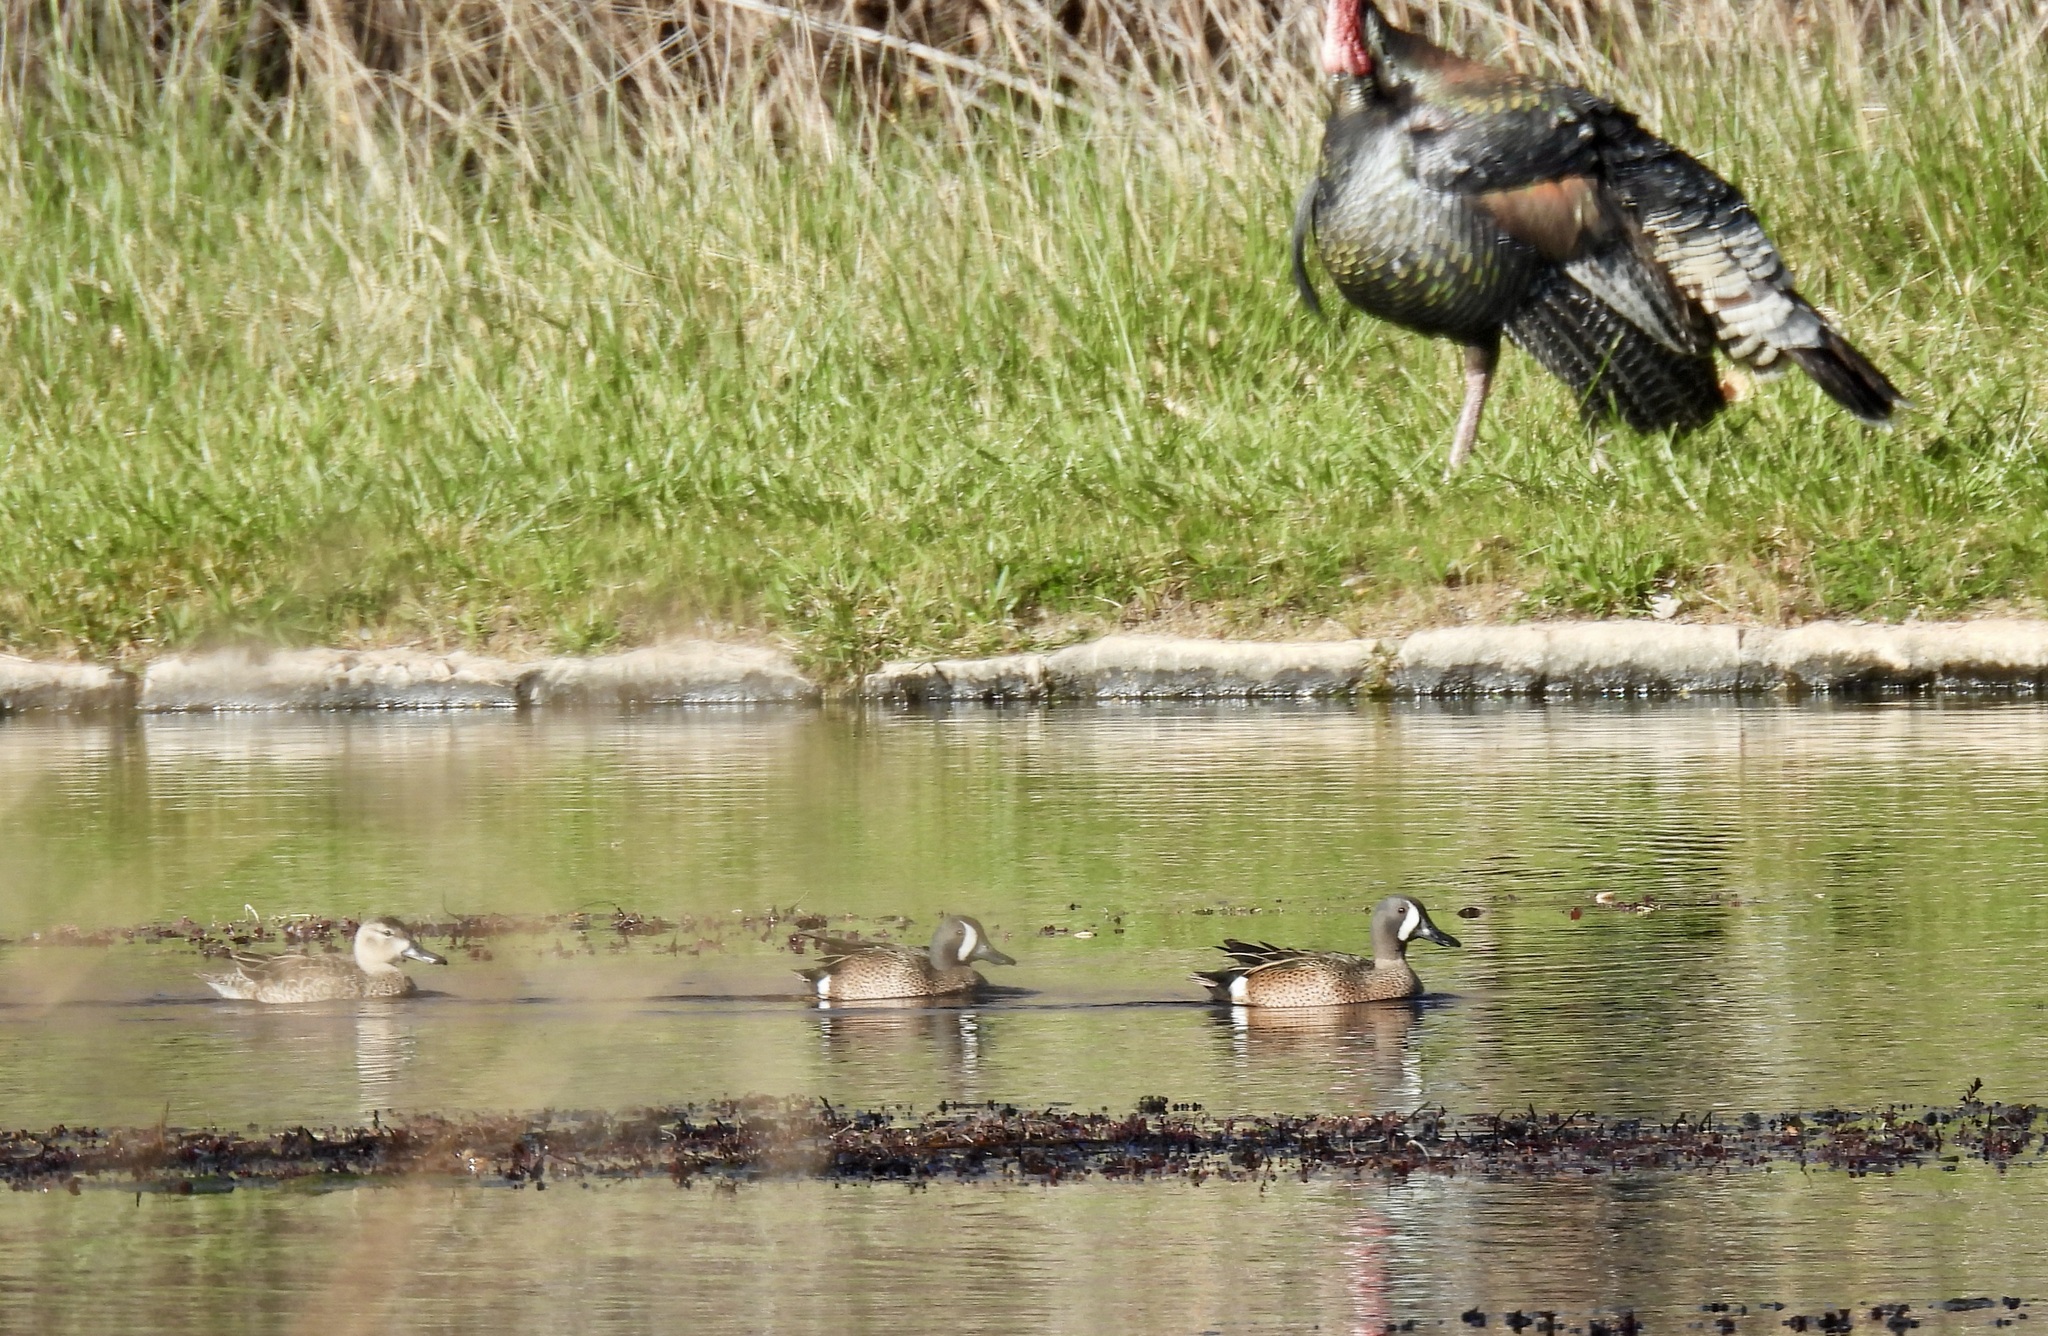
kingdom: Animalia
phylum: Chordata
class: Aves
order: Anseriformes
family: Anatidae
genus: Spatula
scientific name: Spatula discors
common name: Blue-winged teal
